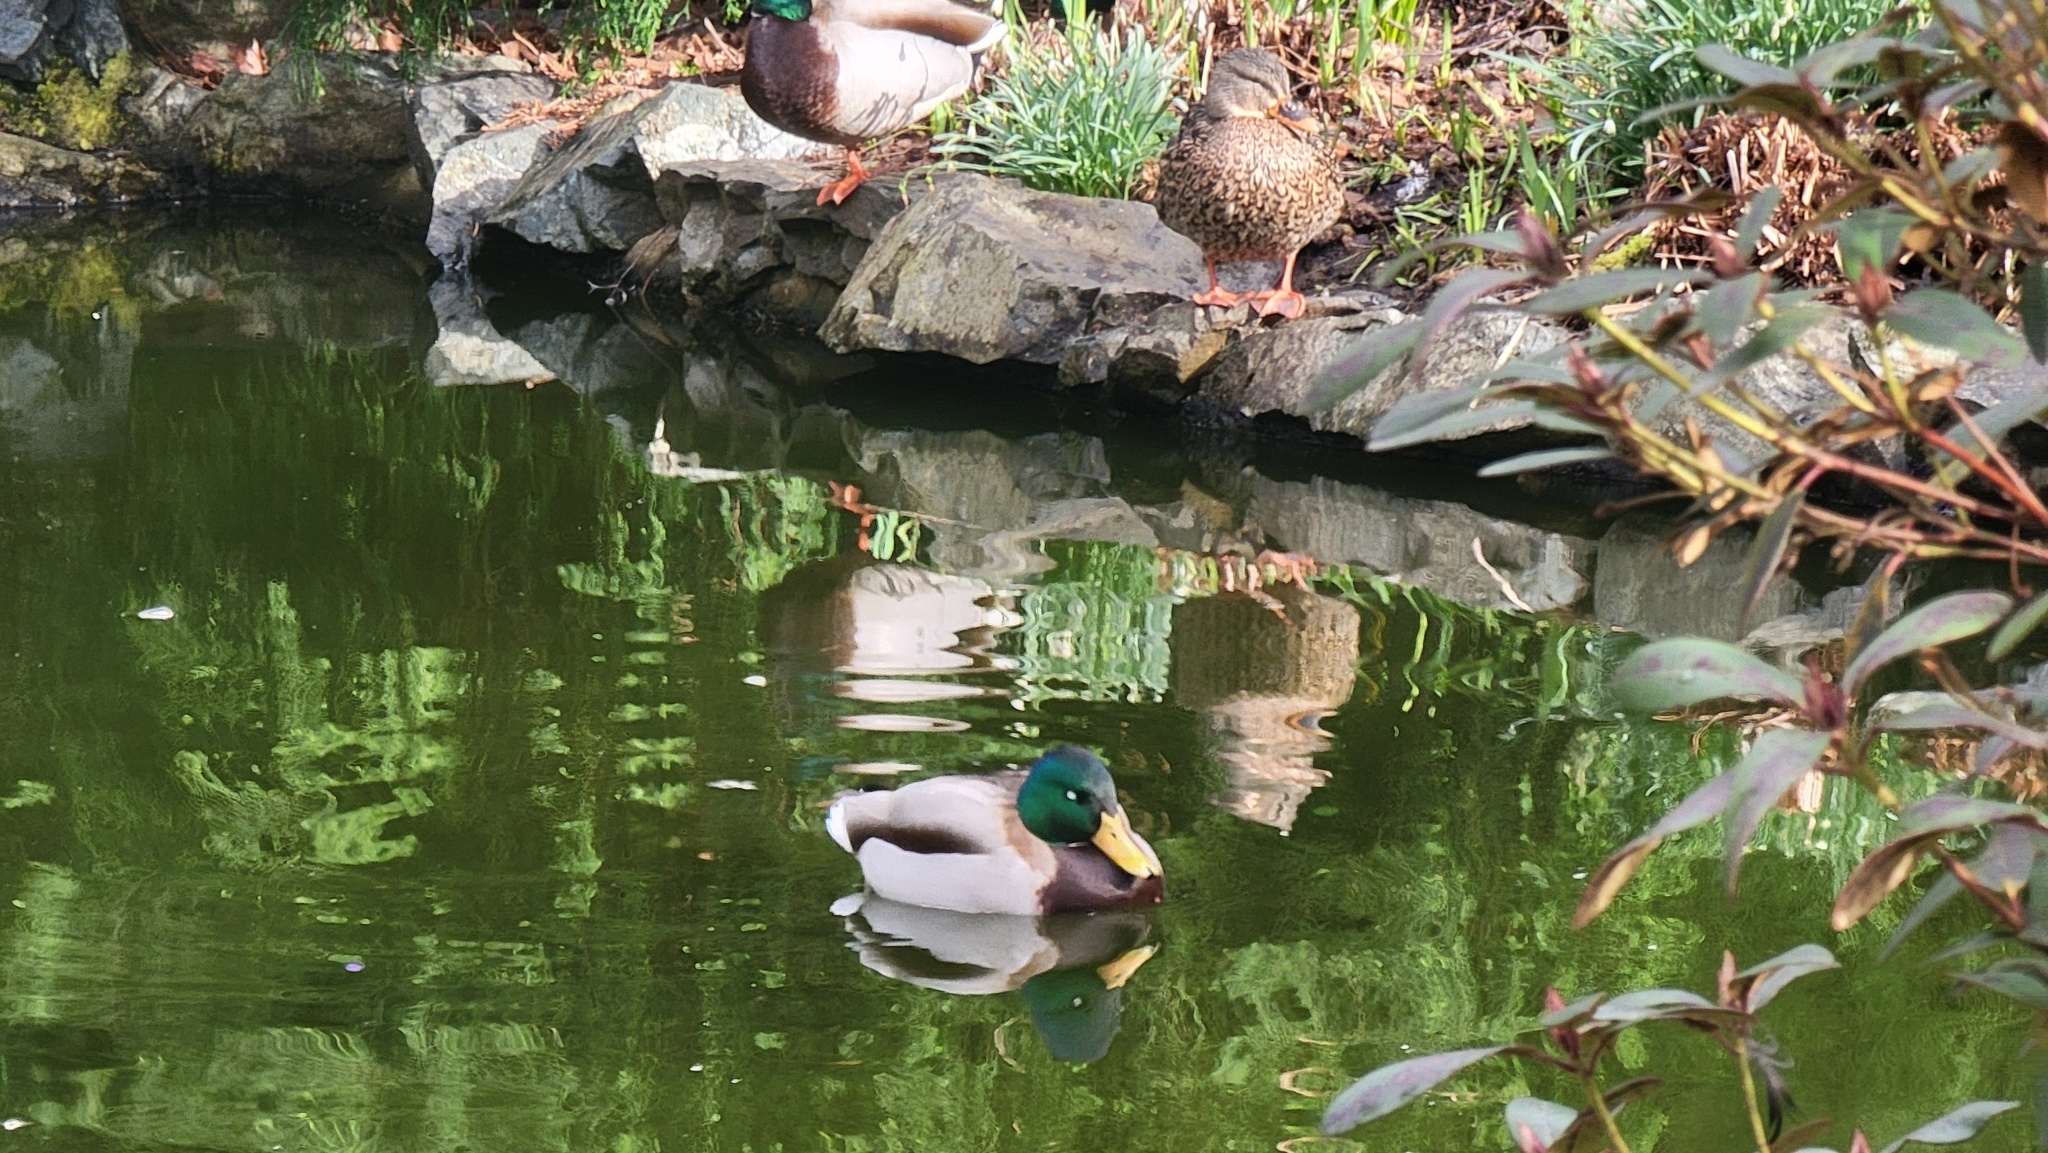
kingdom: Animalia
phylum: Chordata
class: Aves
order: Anseriformes
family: Anatidae
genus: Anas
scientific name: Anas platyrhynchos
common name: Mallard
